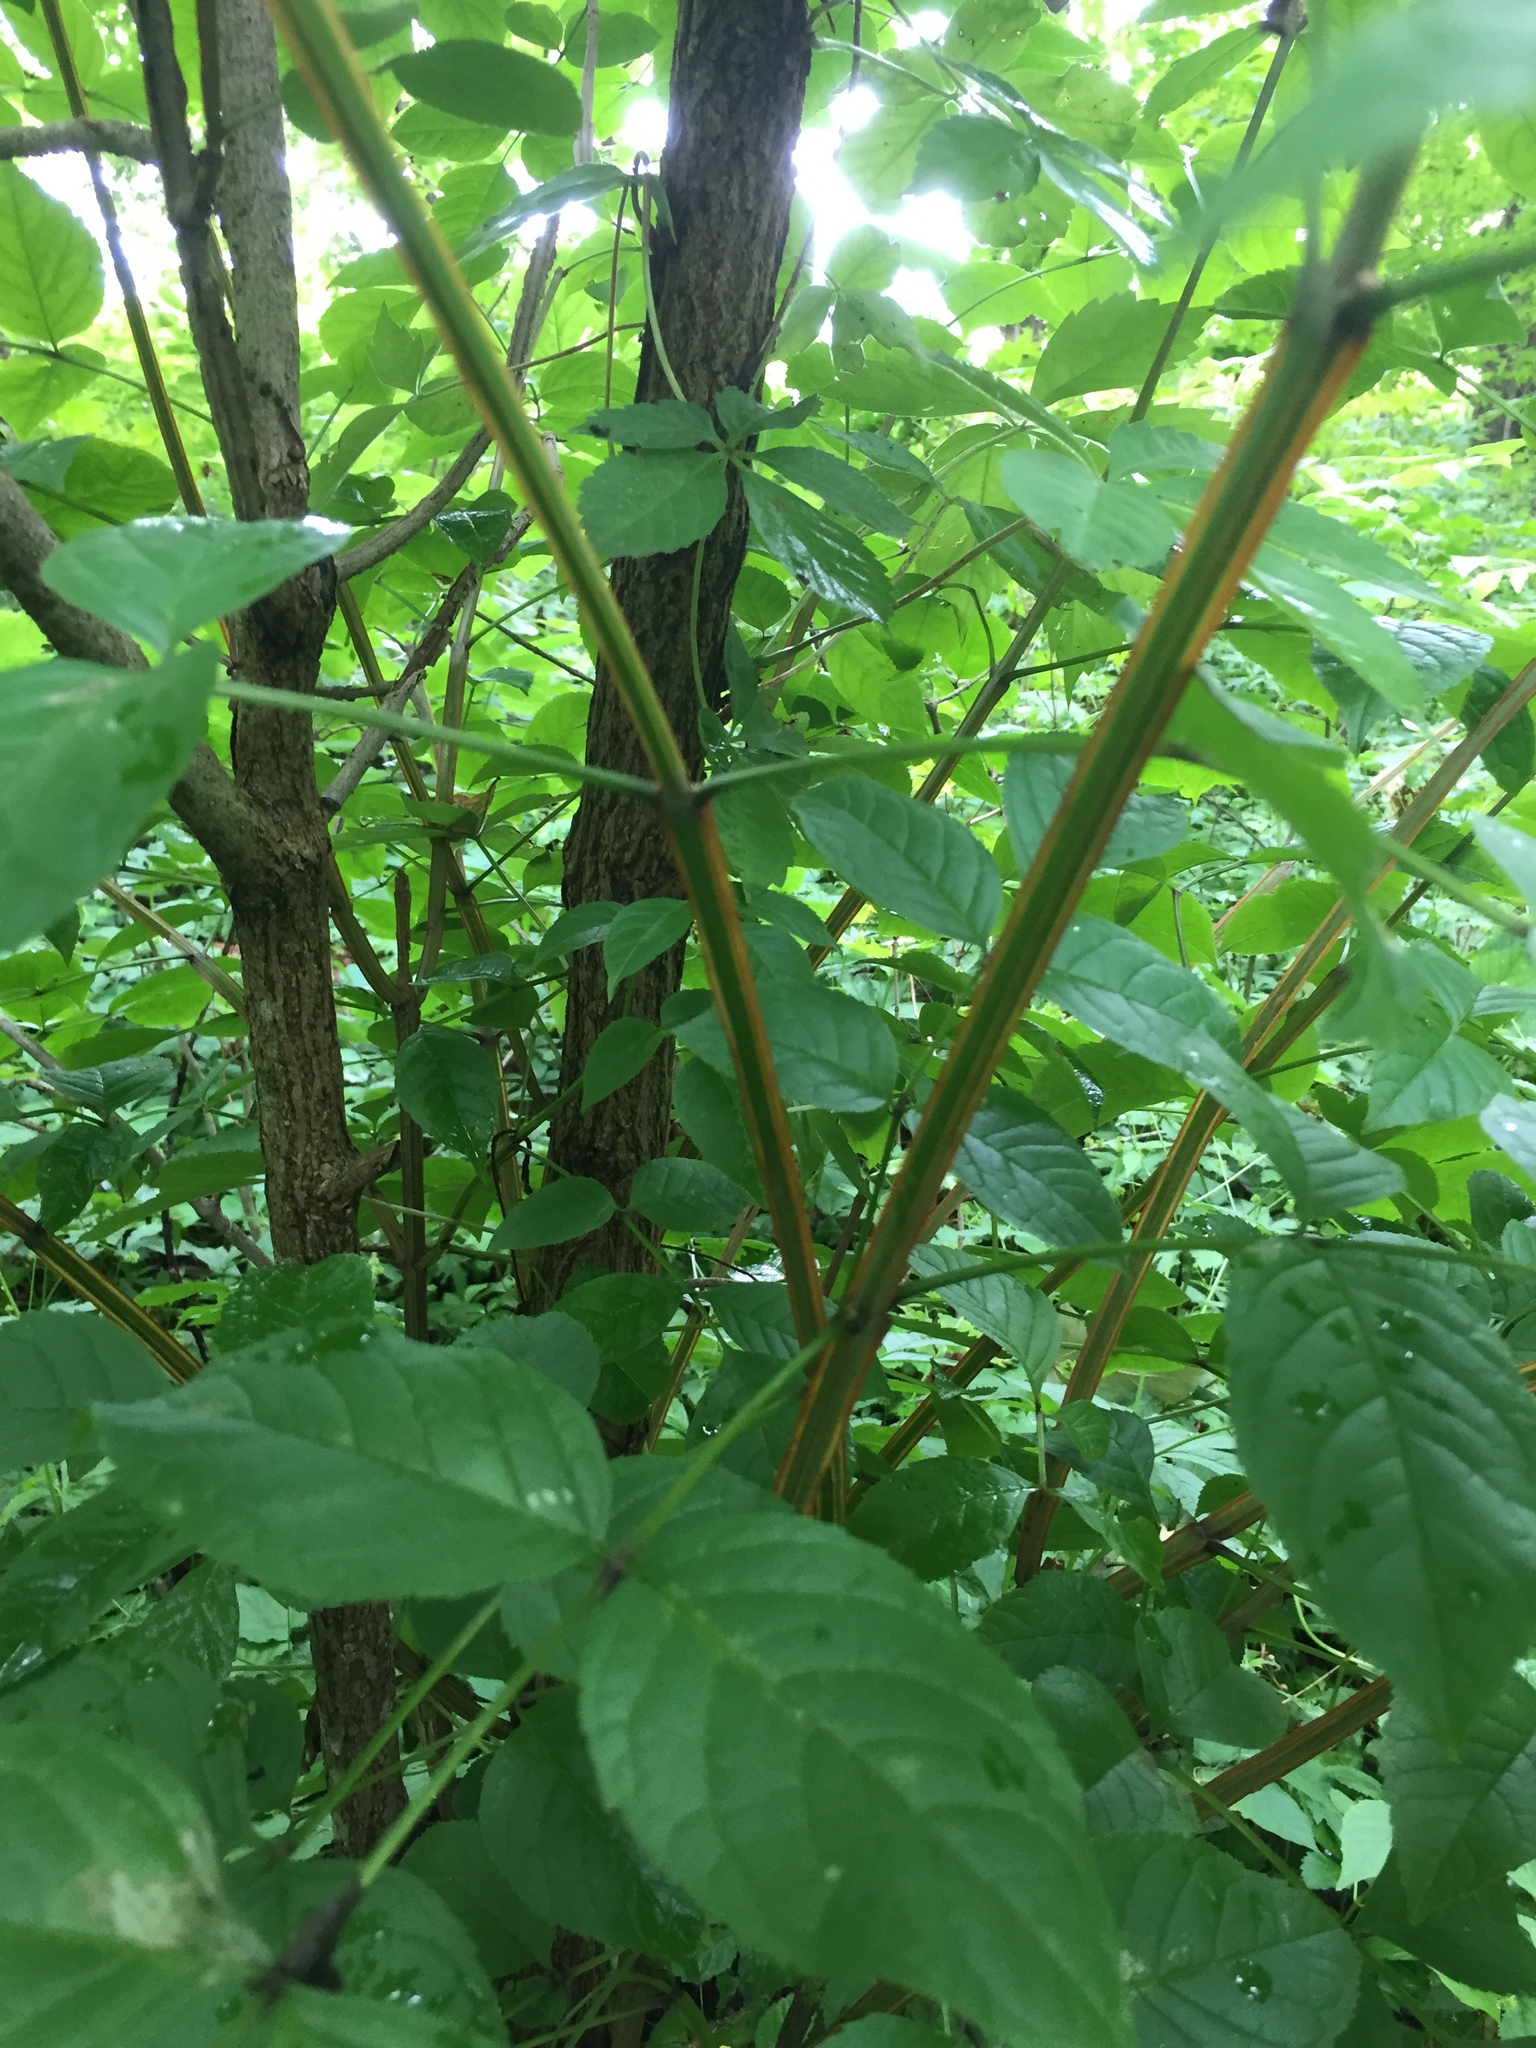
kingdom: Plantae
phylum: Tracheophyta
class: Magnoliopsida
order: Lamiales
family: Oleaceae
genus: Fraxinus
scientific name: Fraxinus quadrangulata
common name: Blue ash
